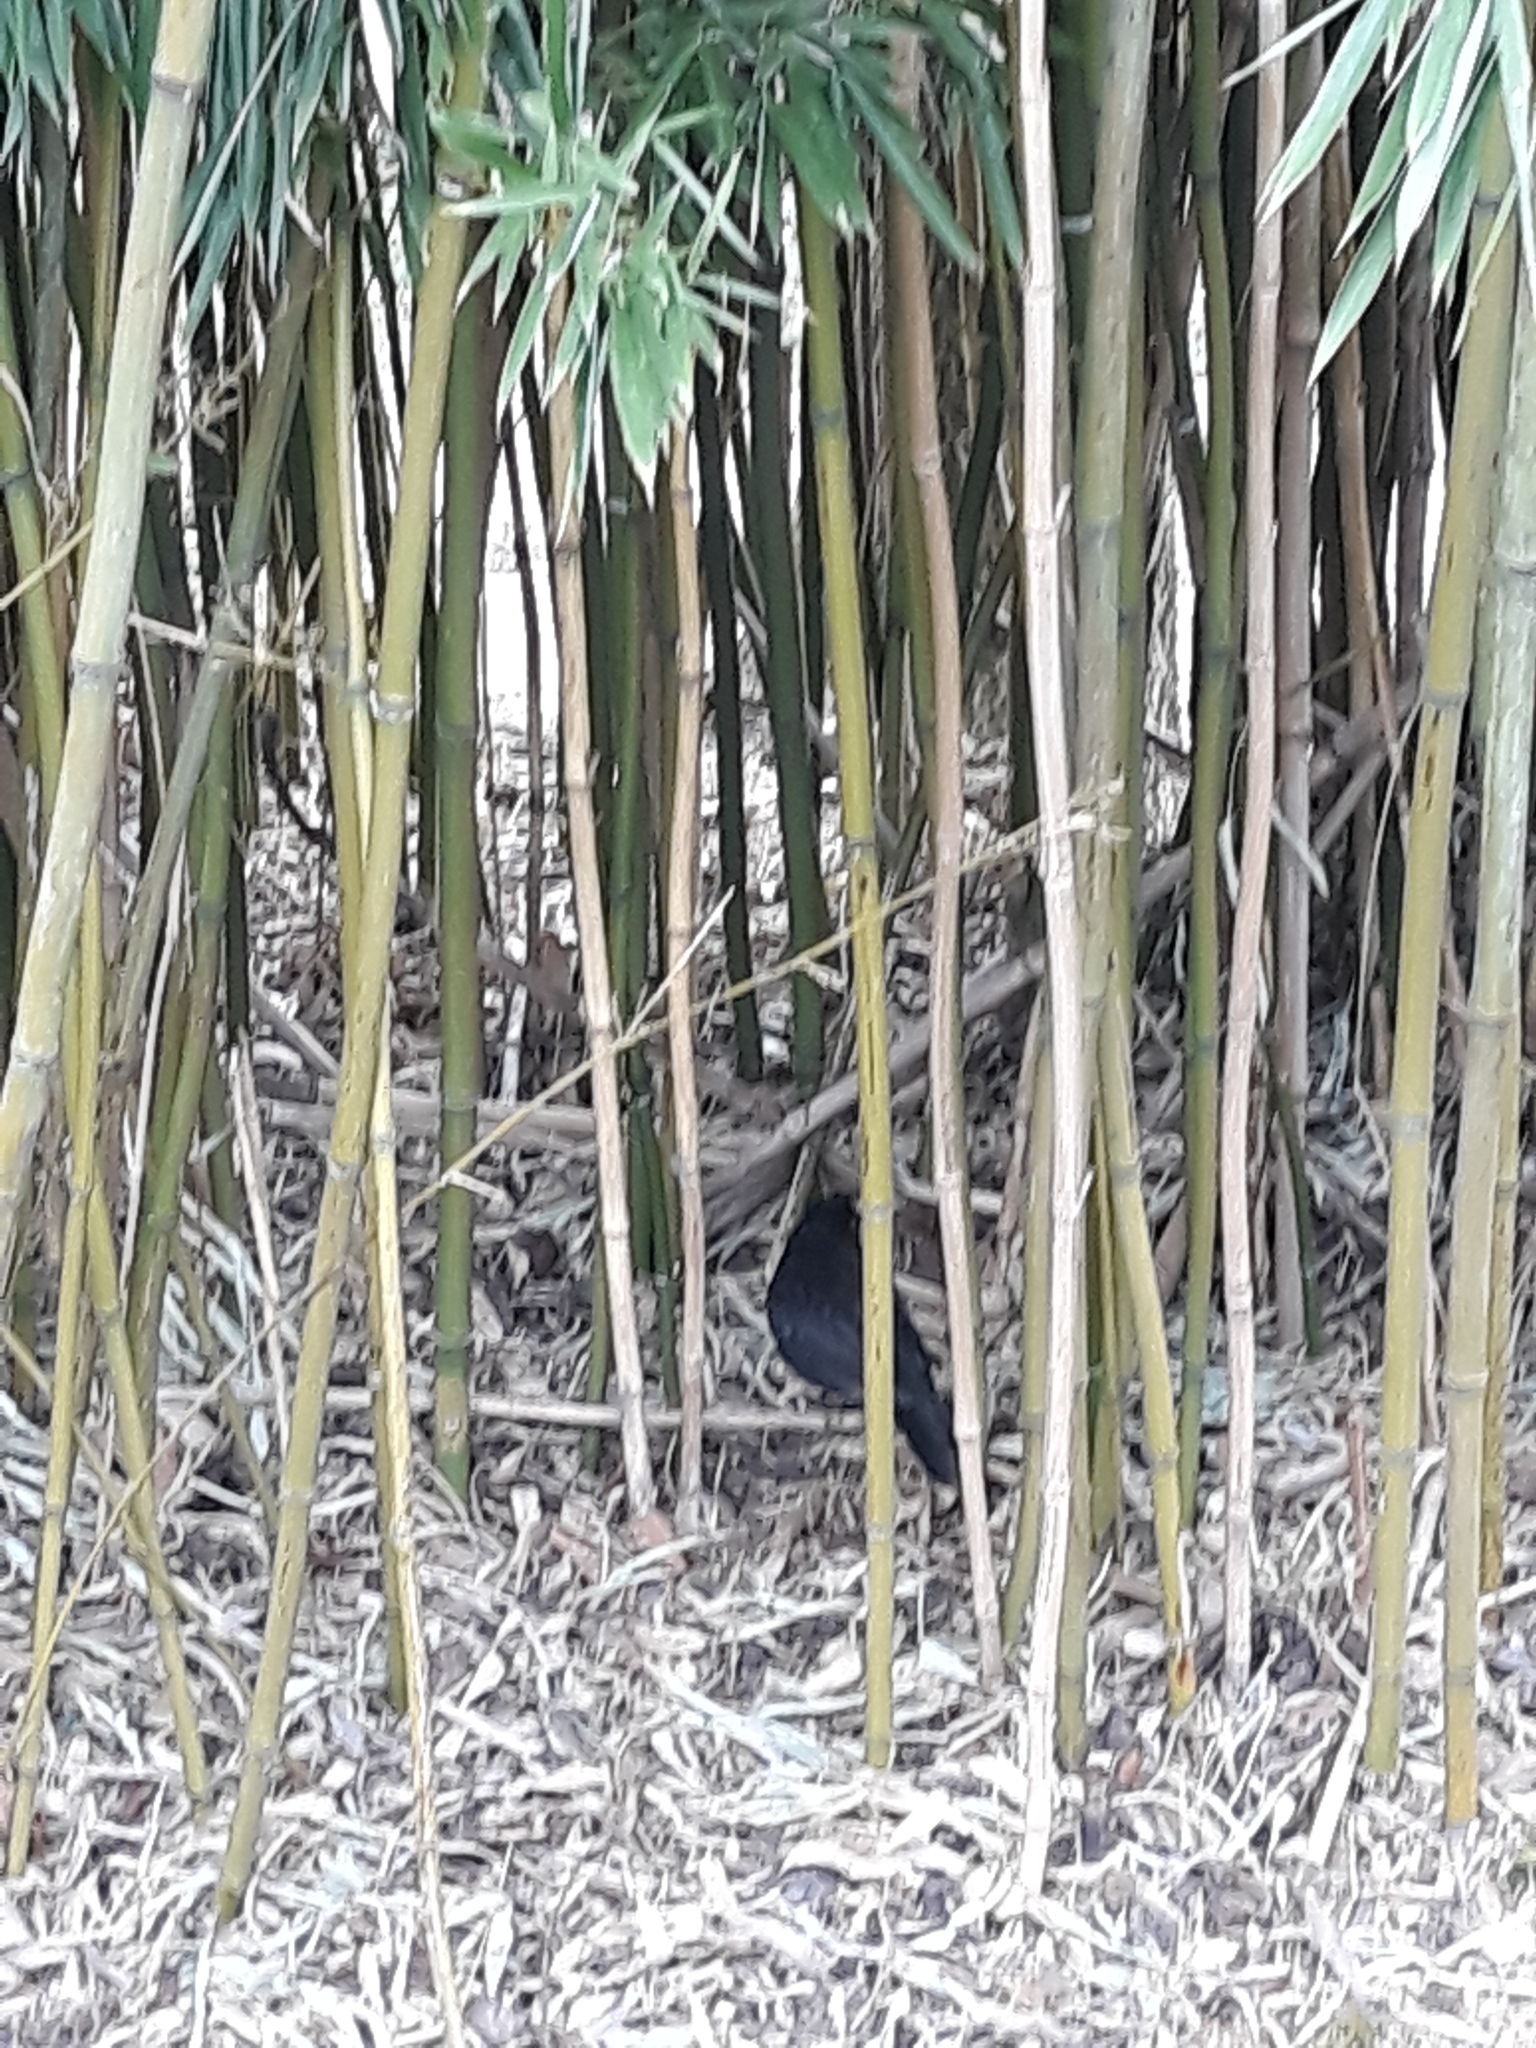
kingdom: Animalia
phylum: Chordata
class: Aves
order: Passeriformes
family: Turdidae
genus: Turdus
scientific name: Turdus merula
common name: Common blackbird
